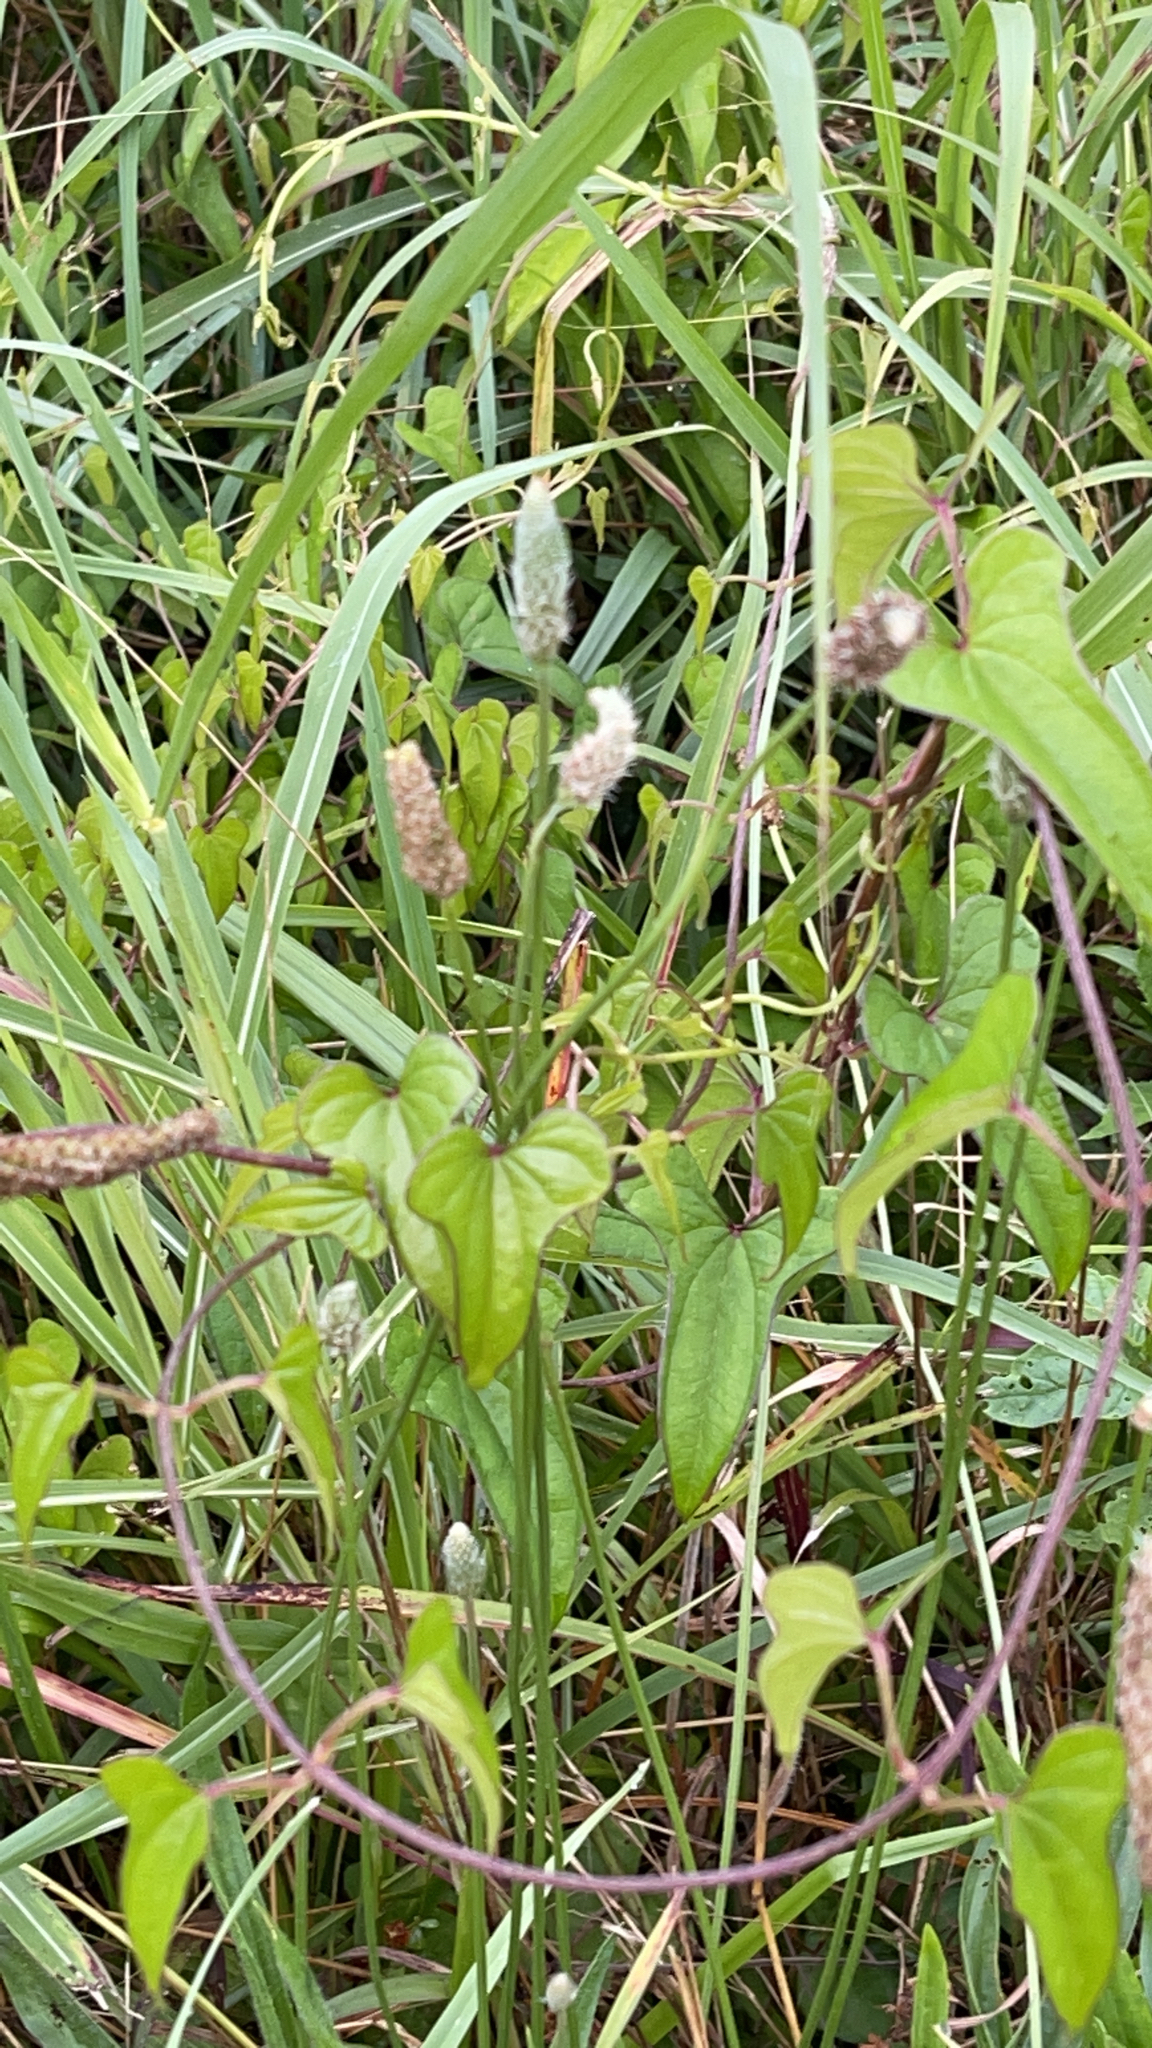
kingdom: Plantae
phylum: Tracheophyta
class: Liliopsida
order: Dioscoreales
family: Dioscoreaceae
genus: Dioscorea
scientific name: Dioscorea polystachya
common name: Chinese yam
